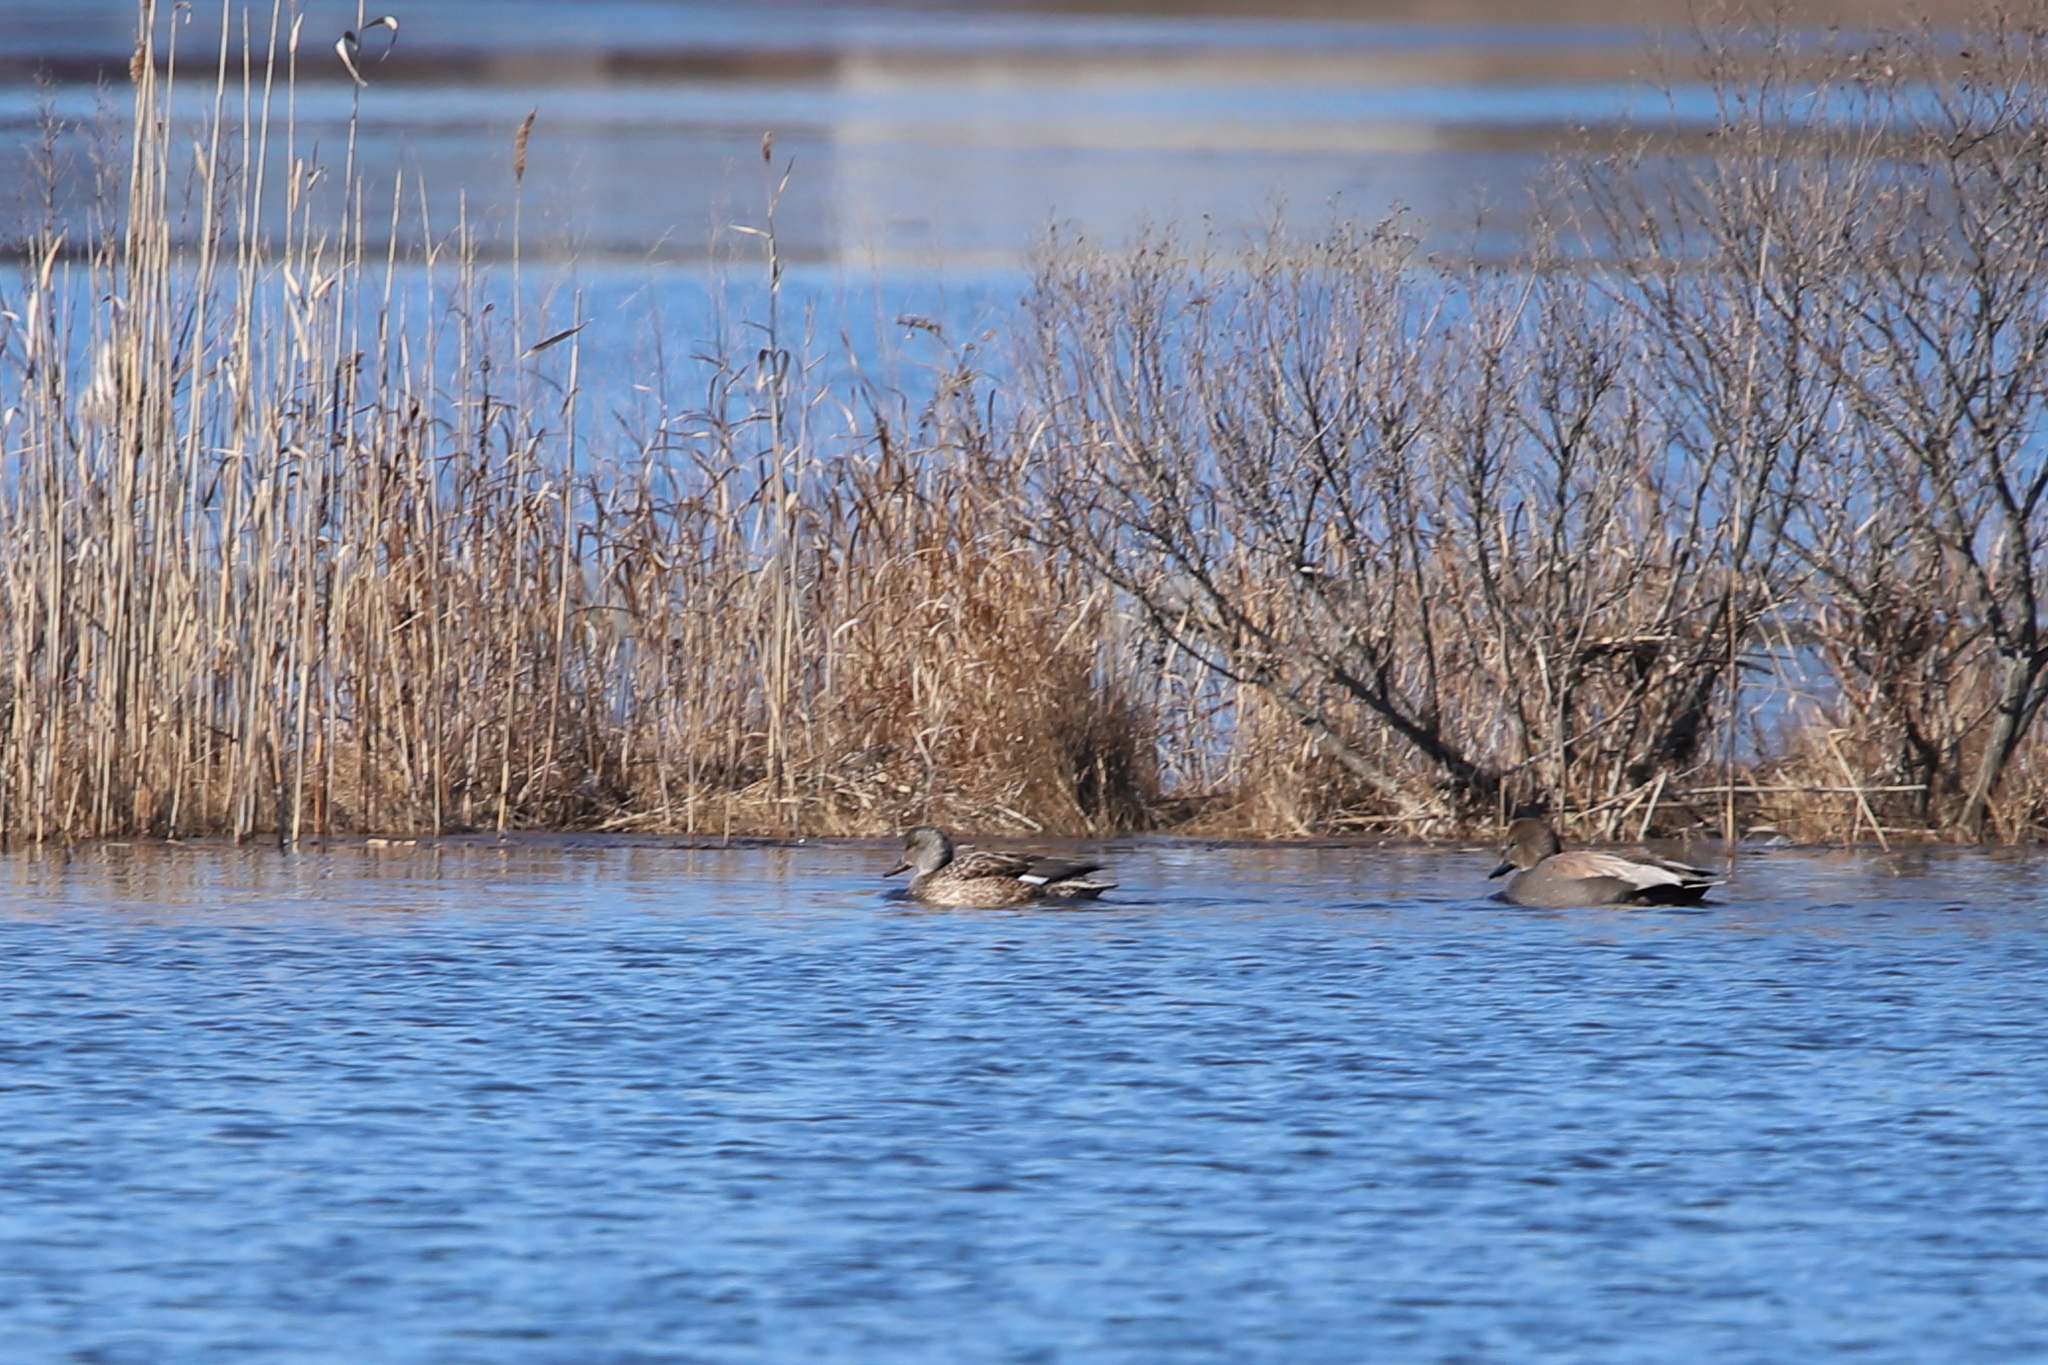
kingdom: Animalia
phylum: Chordata
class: Aves
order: Anseriformes
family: Anatidae
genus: Mareca
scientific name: Mareca strepera
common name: Gadwall
